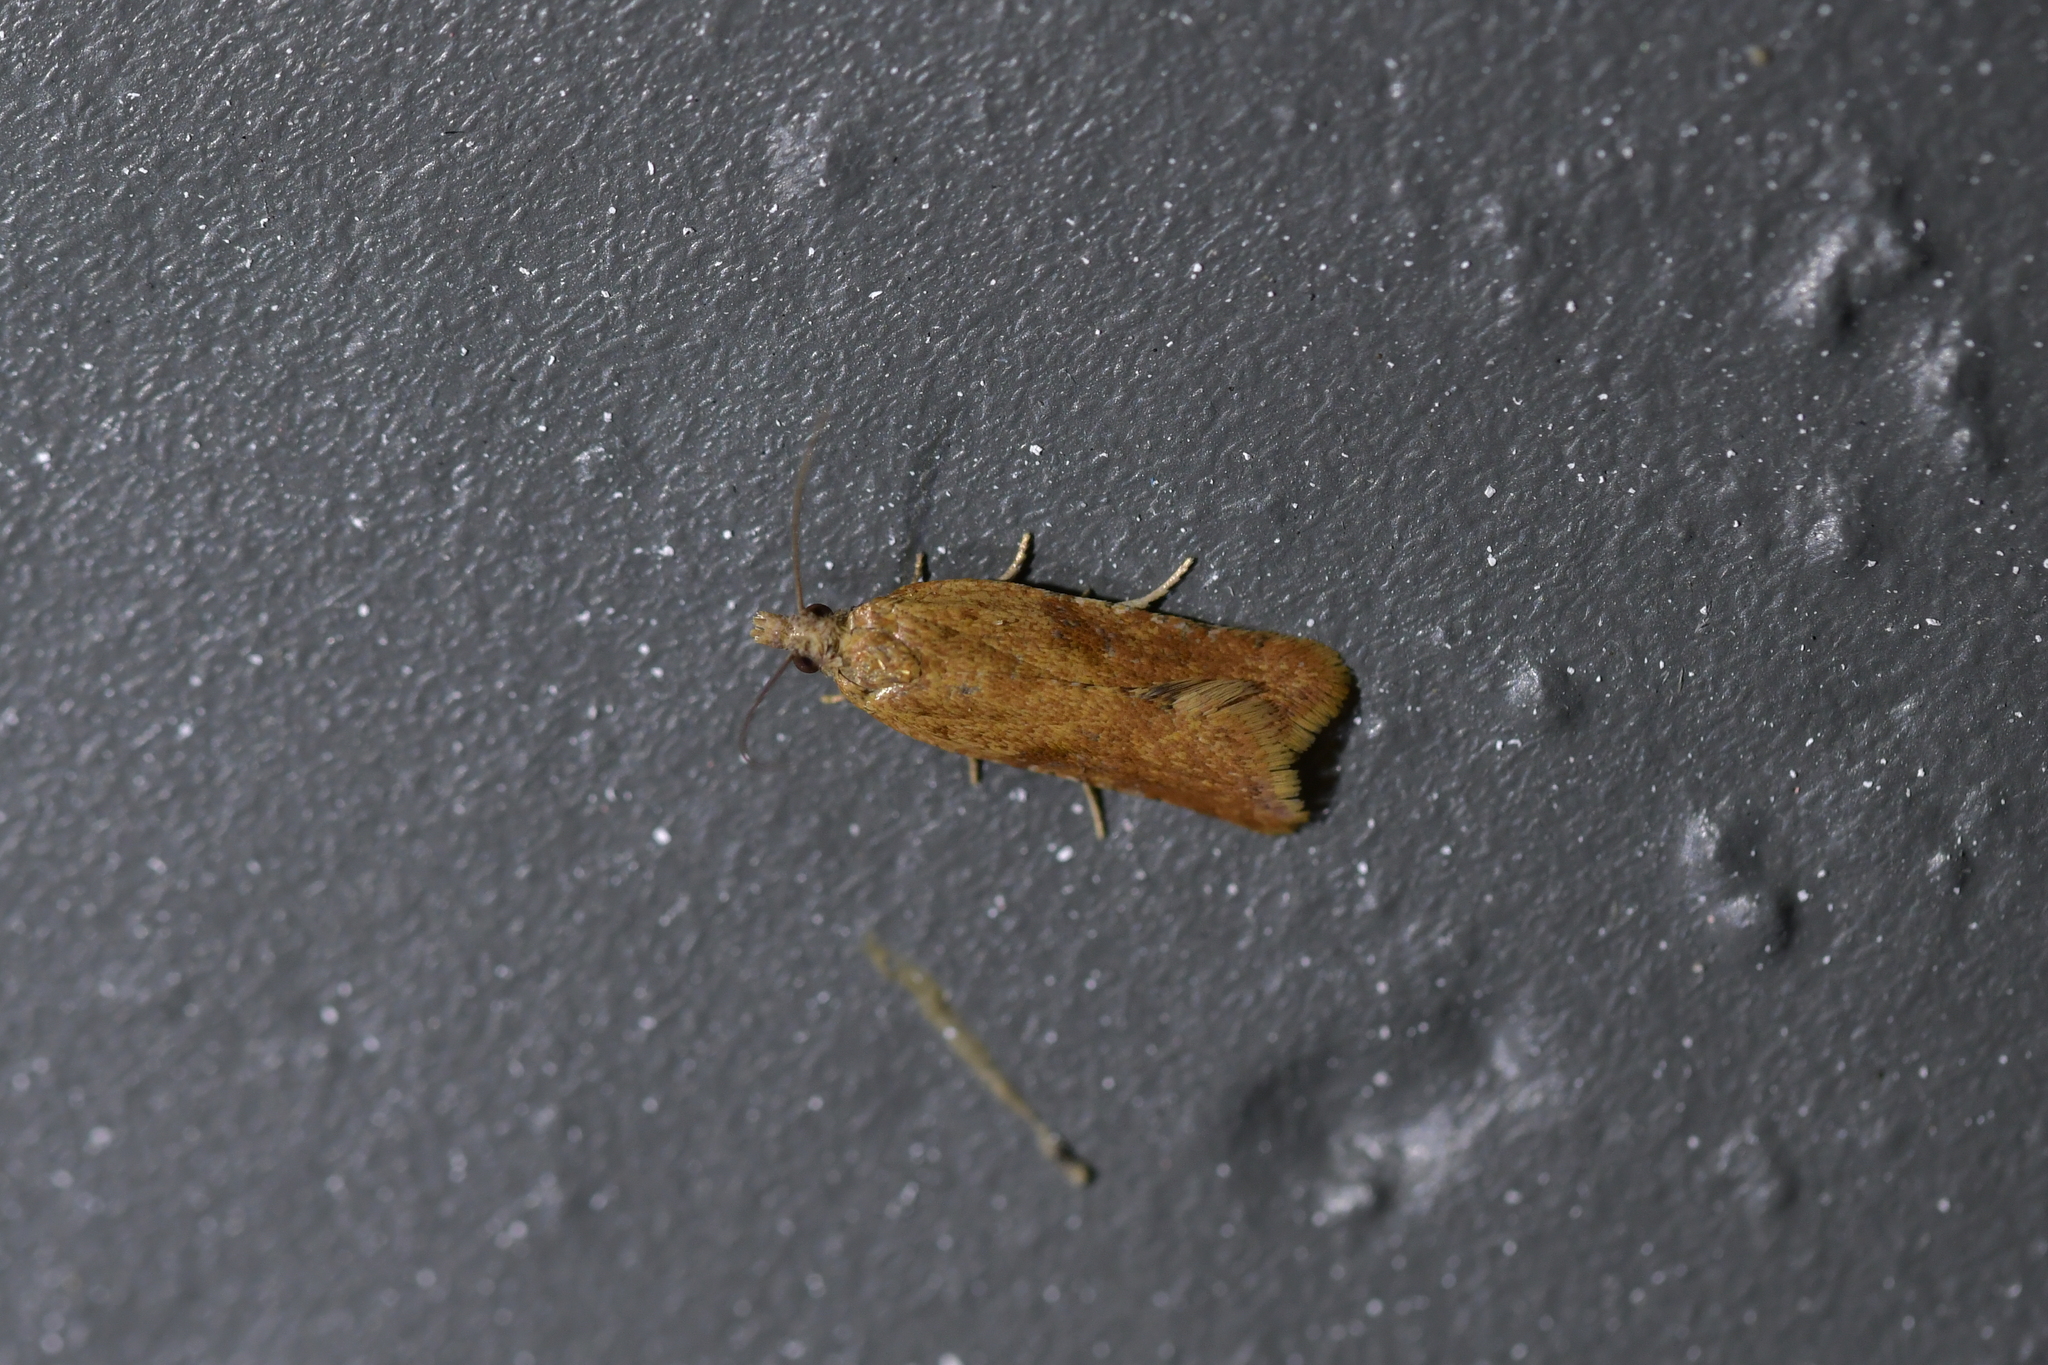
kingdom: Animalia
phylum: Arthropoda
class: Insecta
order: Lepidoptera
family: Tortricidae
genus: Capua
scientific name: Capua semiferana
